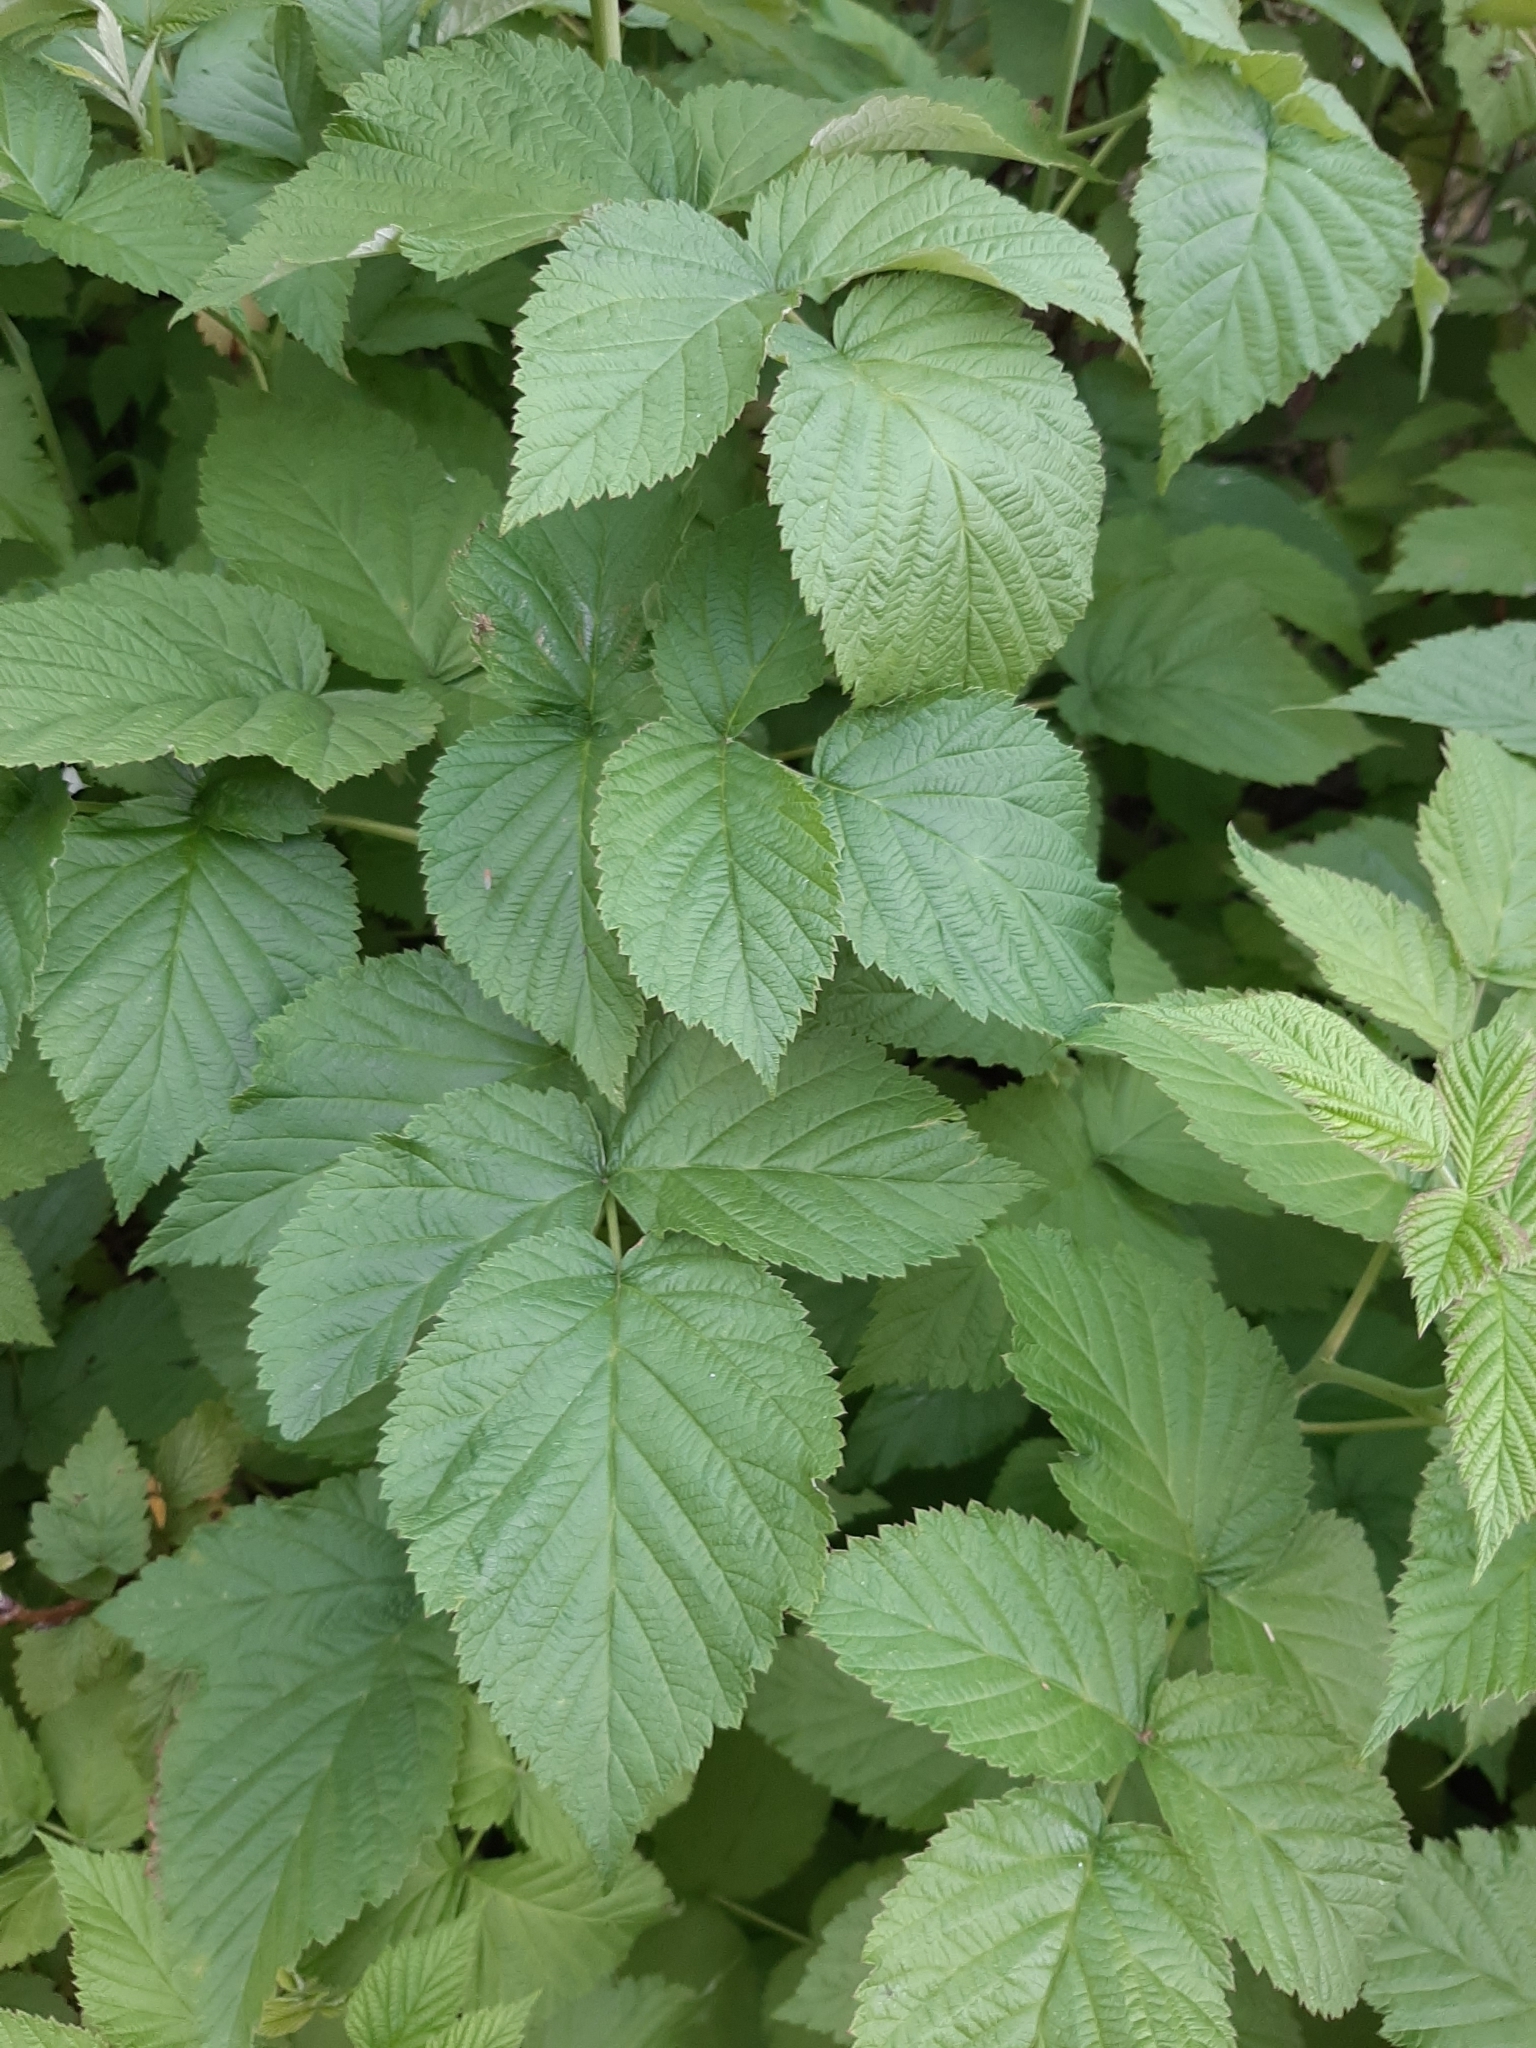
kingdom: Plantae
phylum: Tracheophyta
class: Magnoliopsida
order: Rosales
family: Rosaceae
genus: Rubus
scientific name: Rubus idaeus
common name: Raspberry
